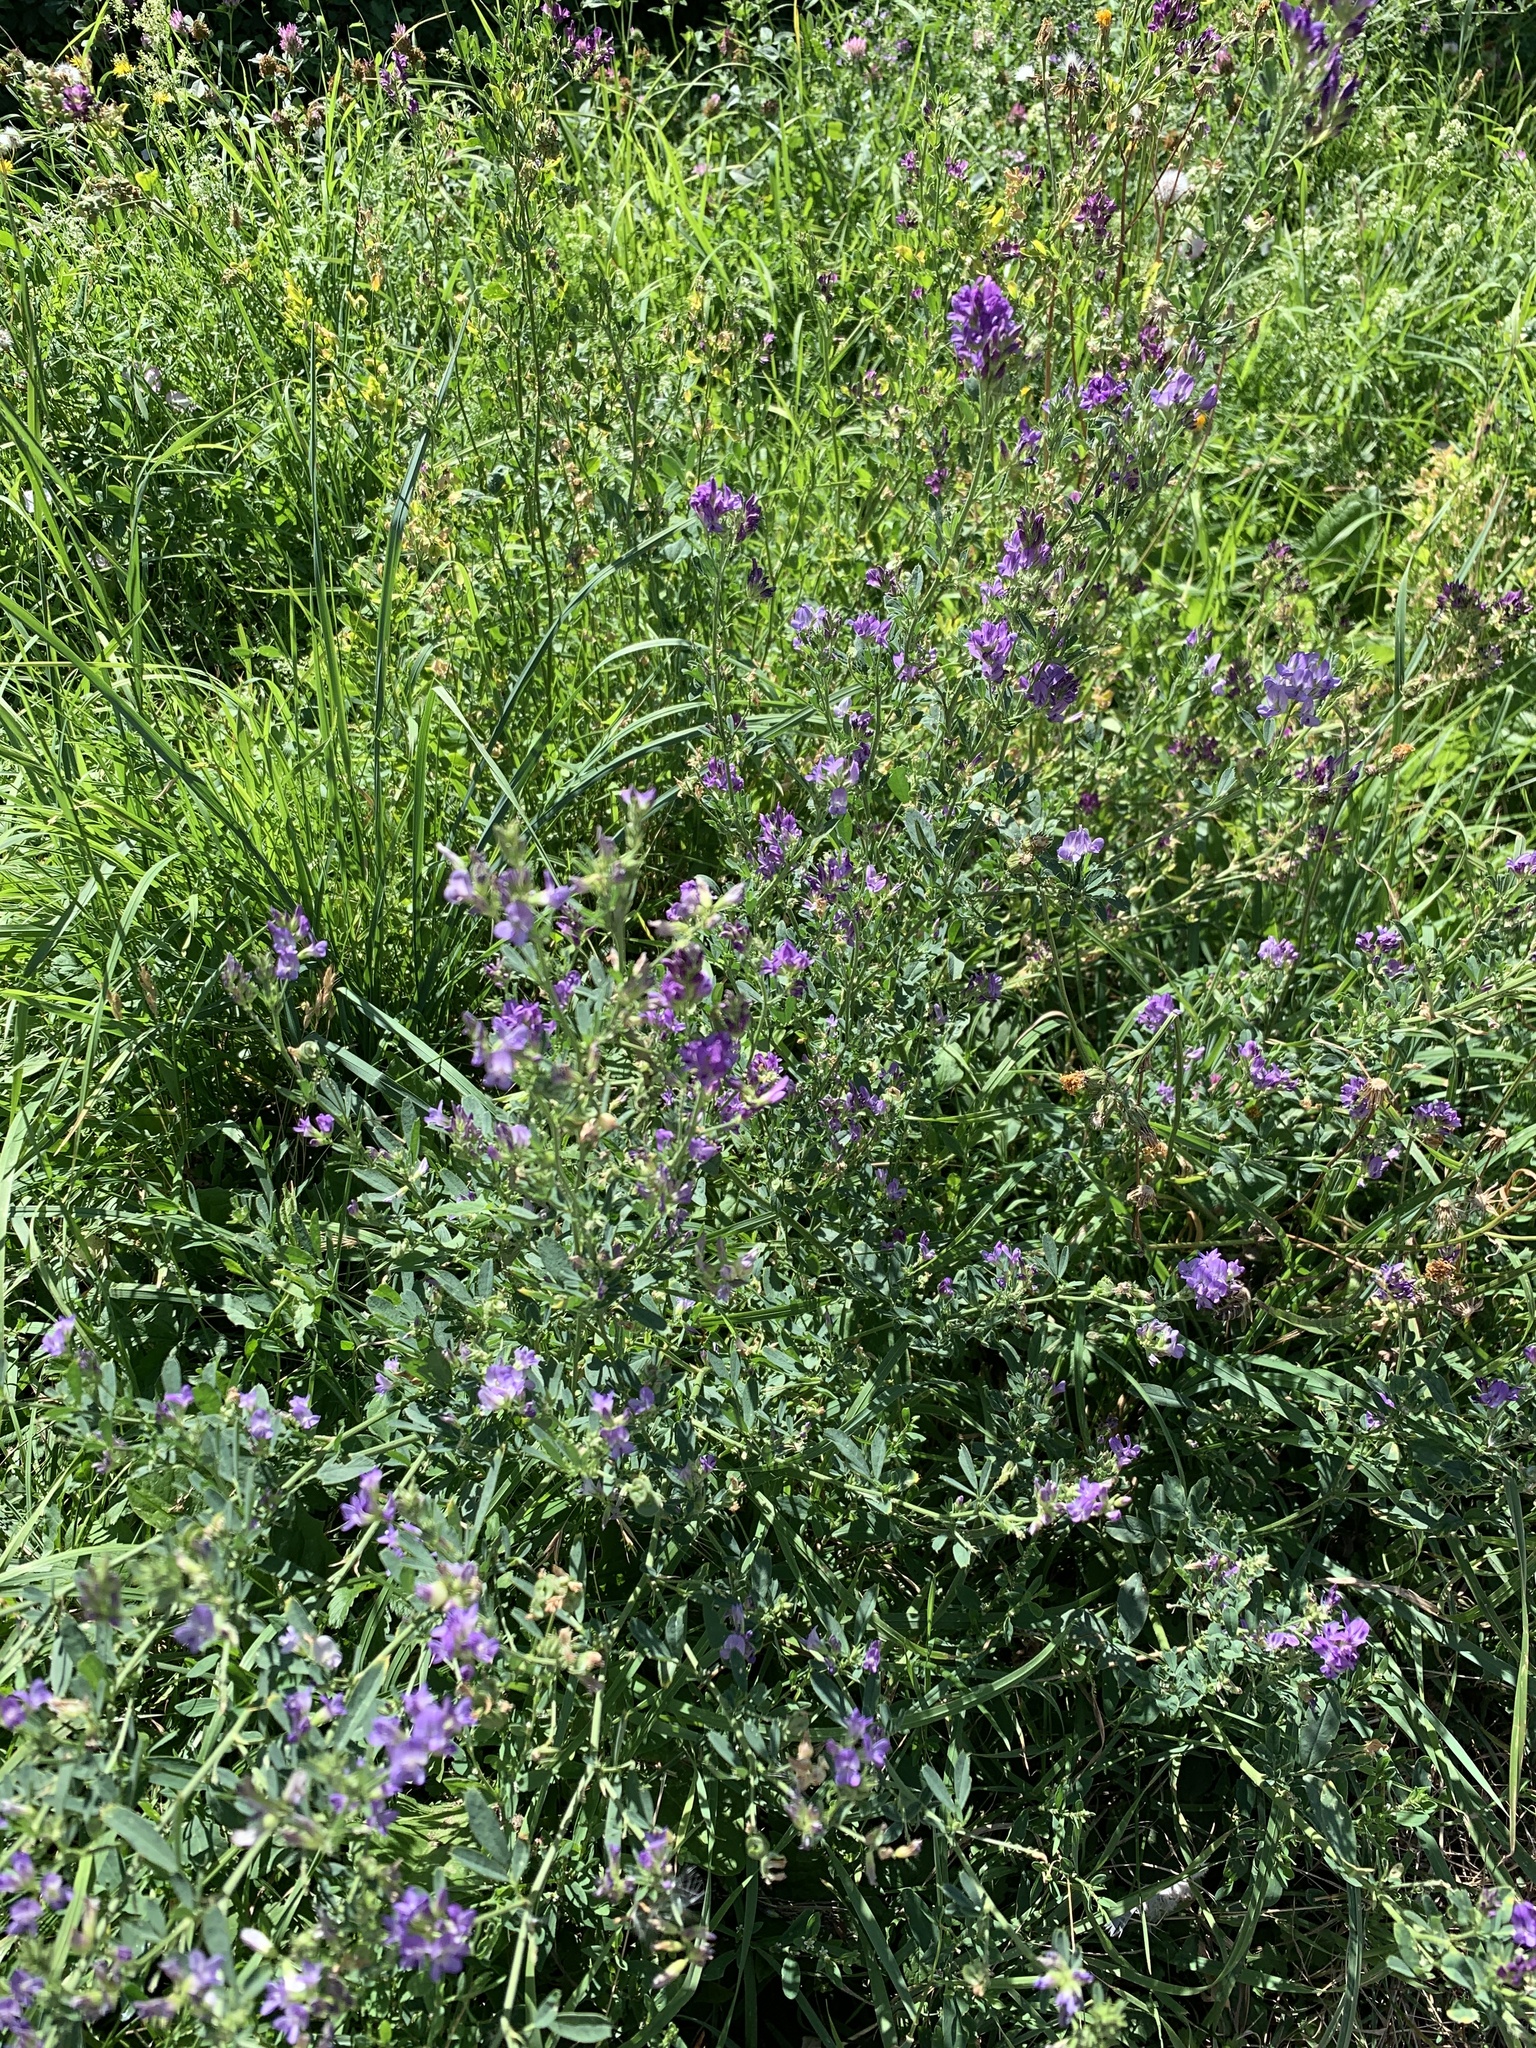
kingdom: Plantae
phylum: Tracheophyta
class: Magnoliopsida
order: Fabales
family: Fabaceae
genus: Medicago
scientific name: Medicago sativa
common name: Alfalfa
